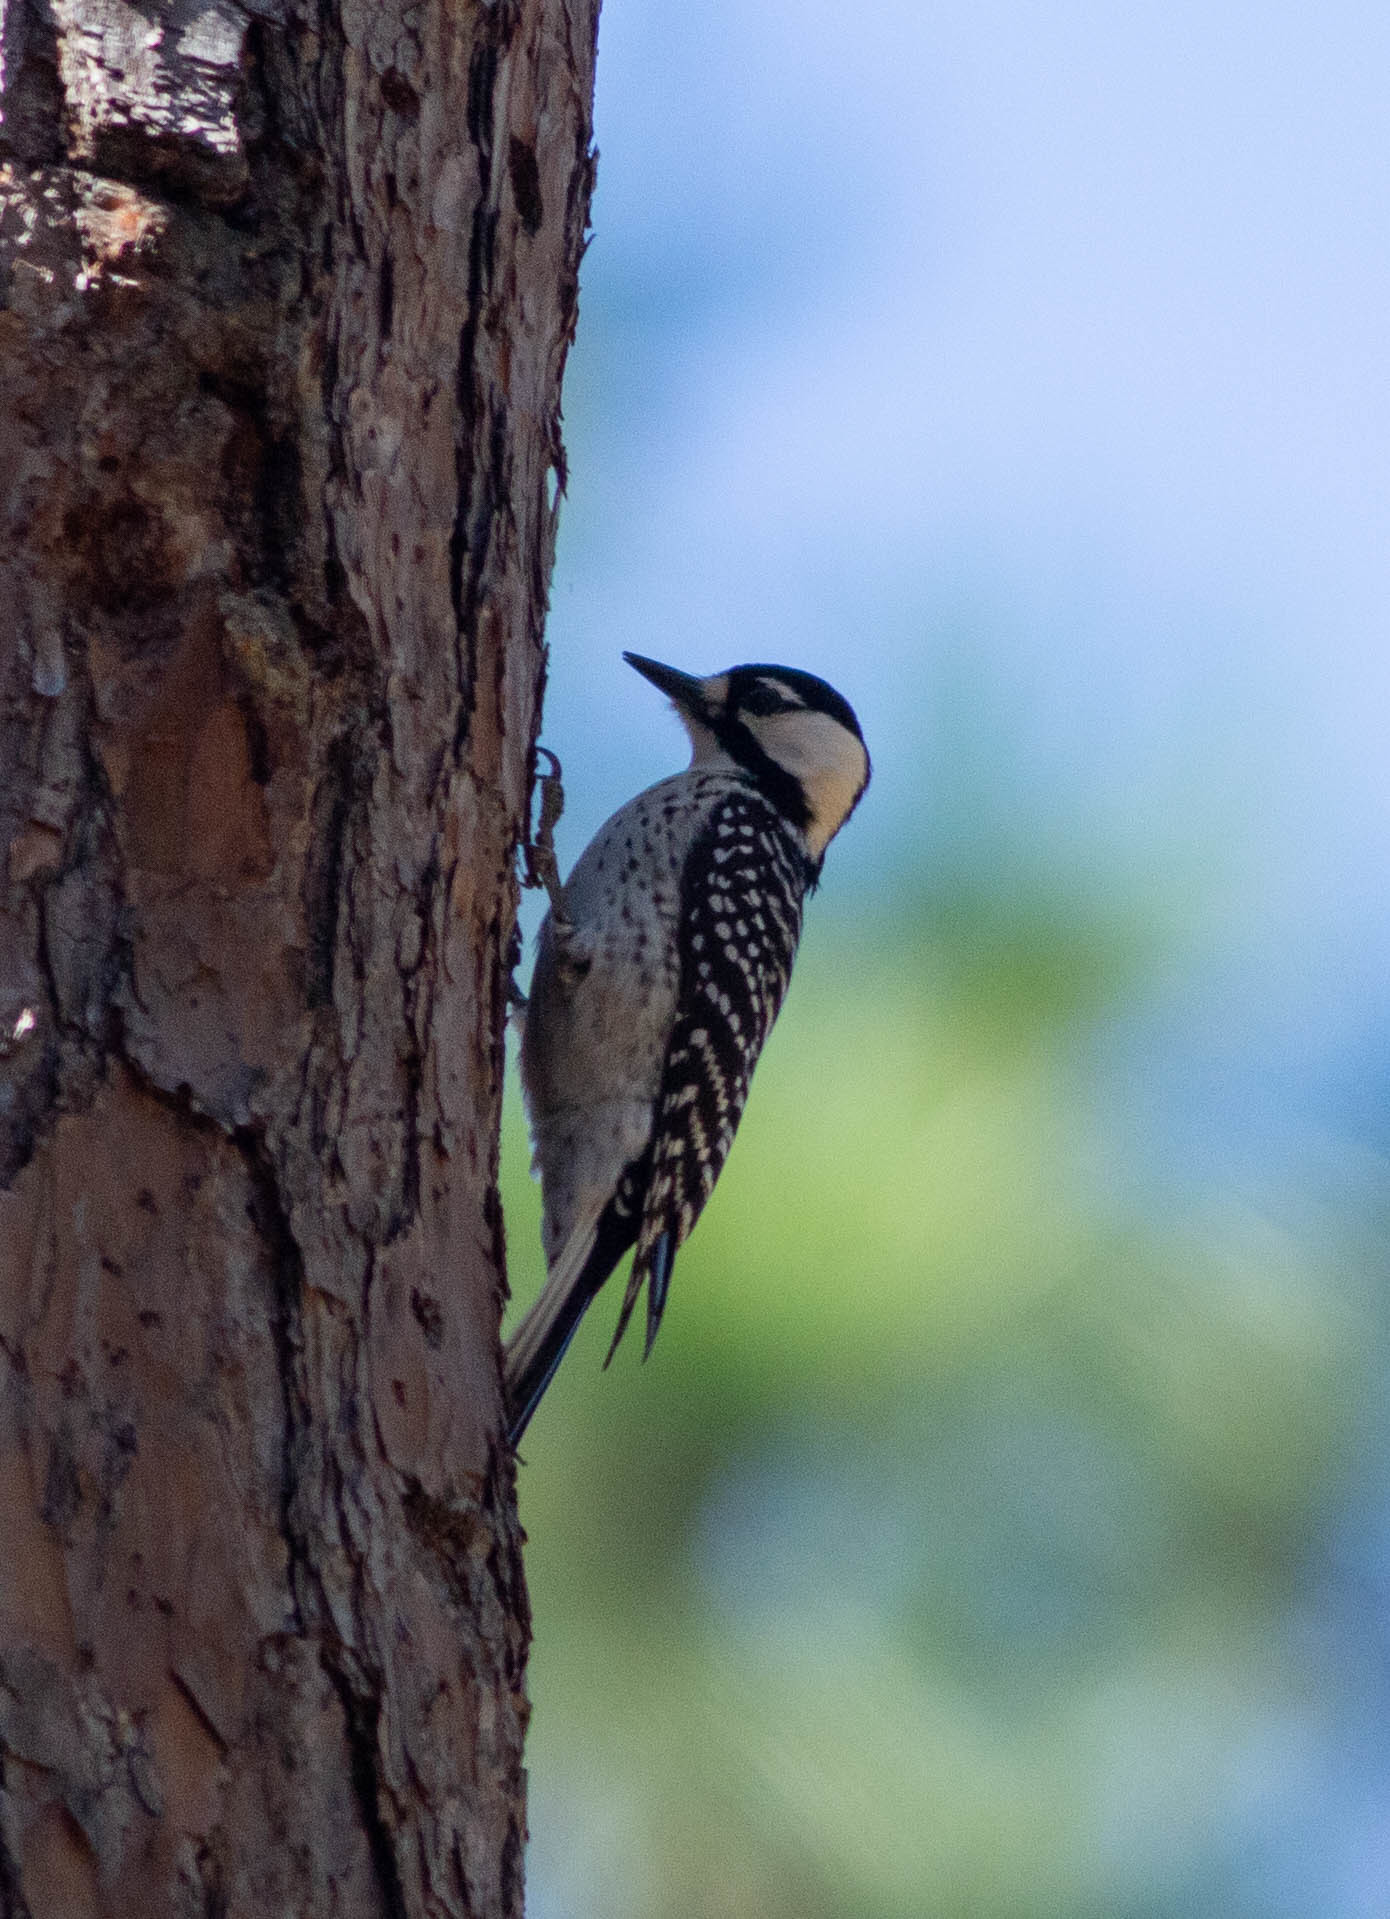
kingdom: Animalia
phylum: Chordata
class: Aves
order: Piciformes
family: Picidae
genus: Leuconotopicus
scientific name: Leuconotopicus borealis
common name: Red-cockaded woodpecker
